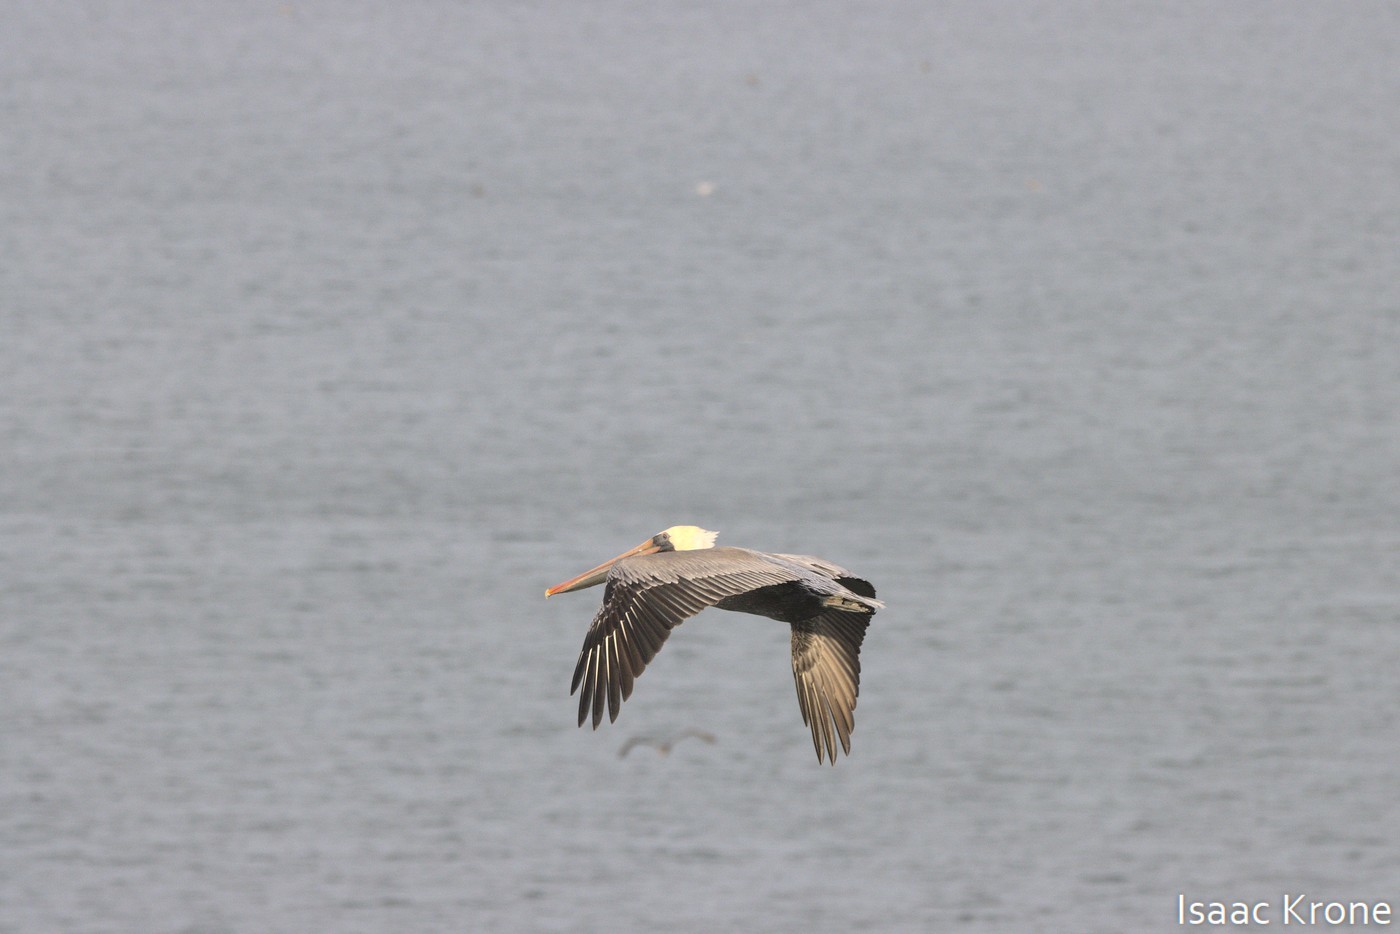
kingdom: Animalia
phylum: Chordata
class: Aves
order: Pelecaniformes
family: Pelecanidae
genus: Pelecanus
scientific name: Pelecanus occidentalis
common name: Brown pelican
